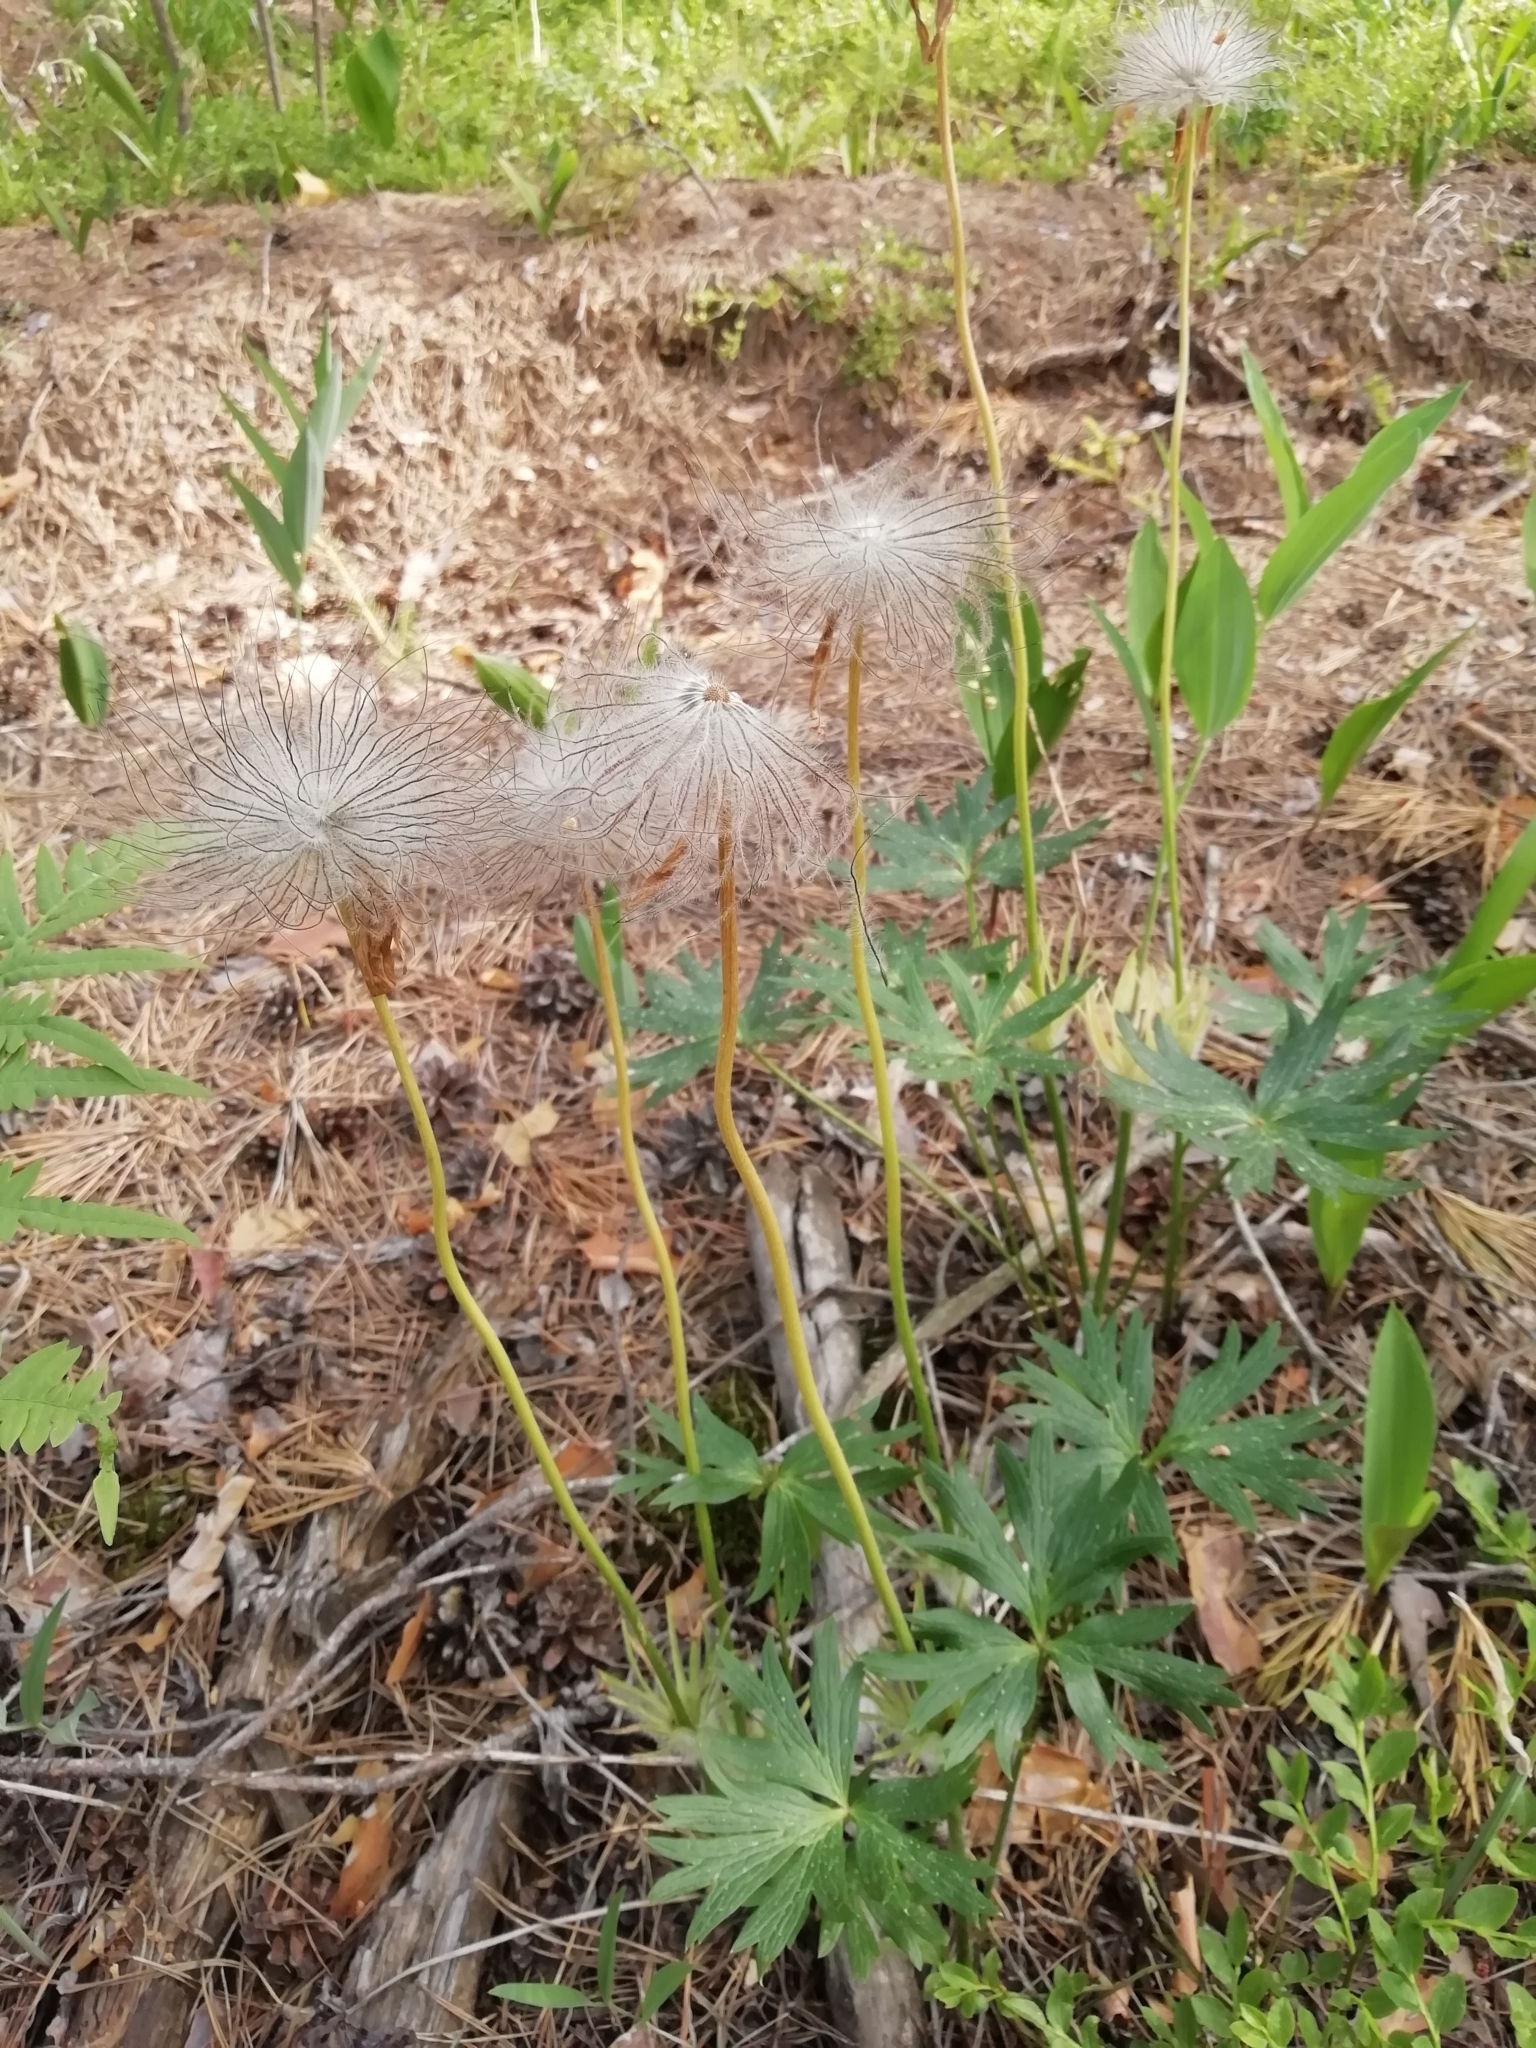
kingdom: Plantae
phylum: Tracheophyta
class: Magnoliopsida
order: Ranunculales
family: Ranunculaceae
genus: Pulsatilla
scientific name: Pulsatilla patens
